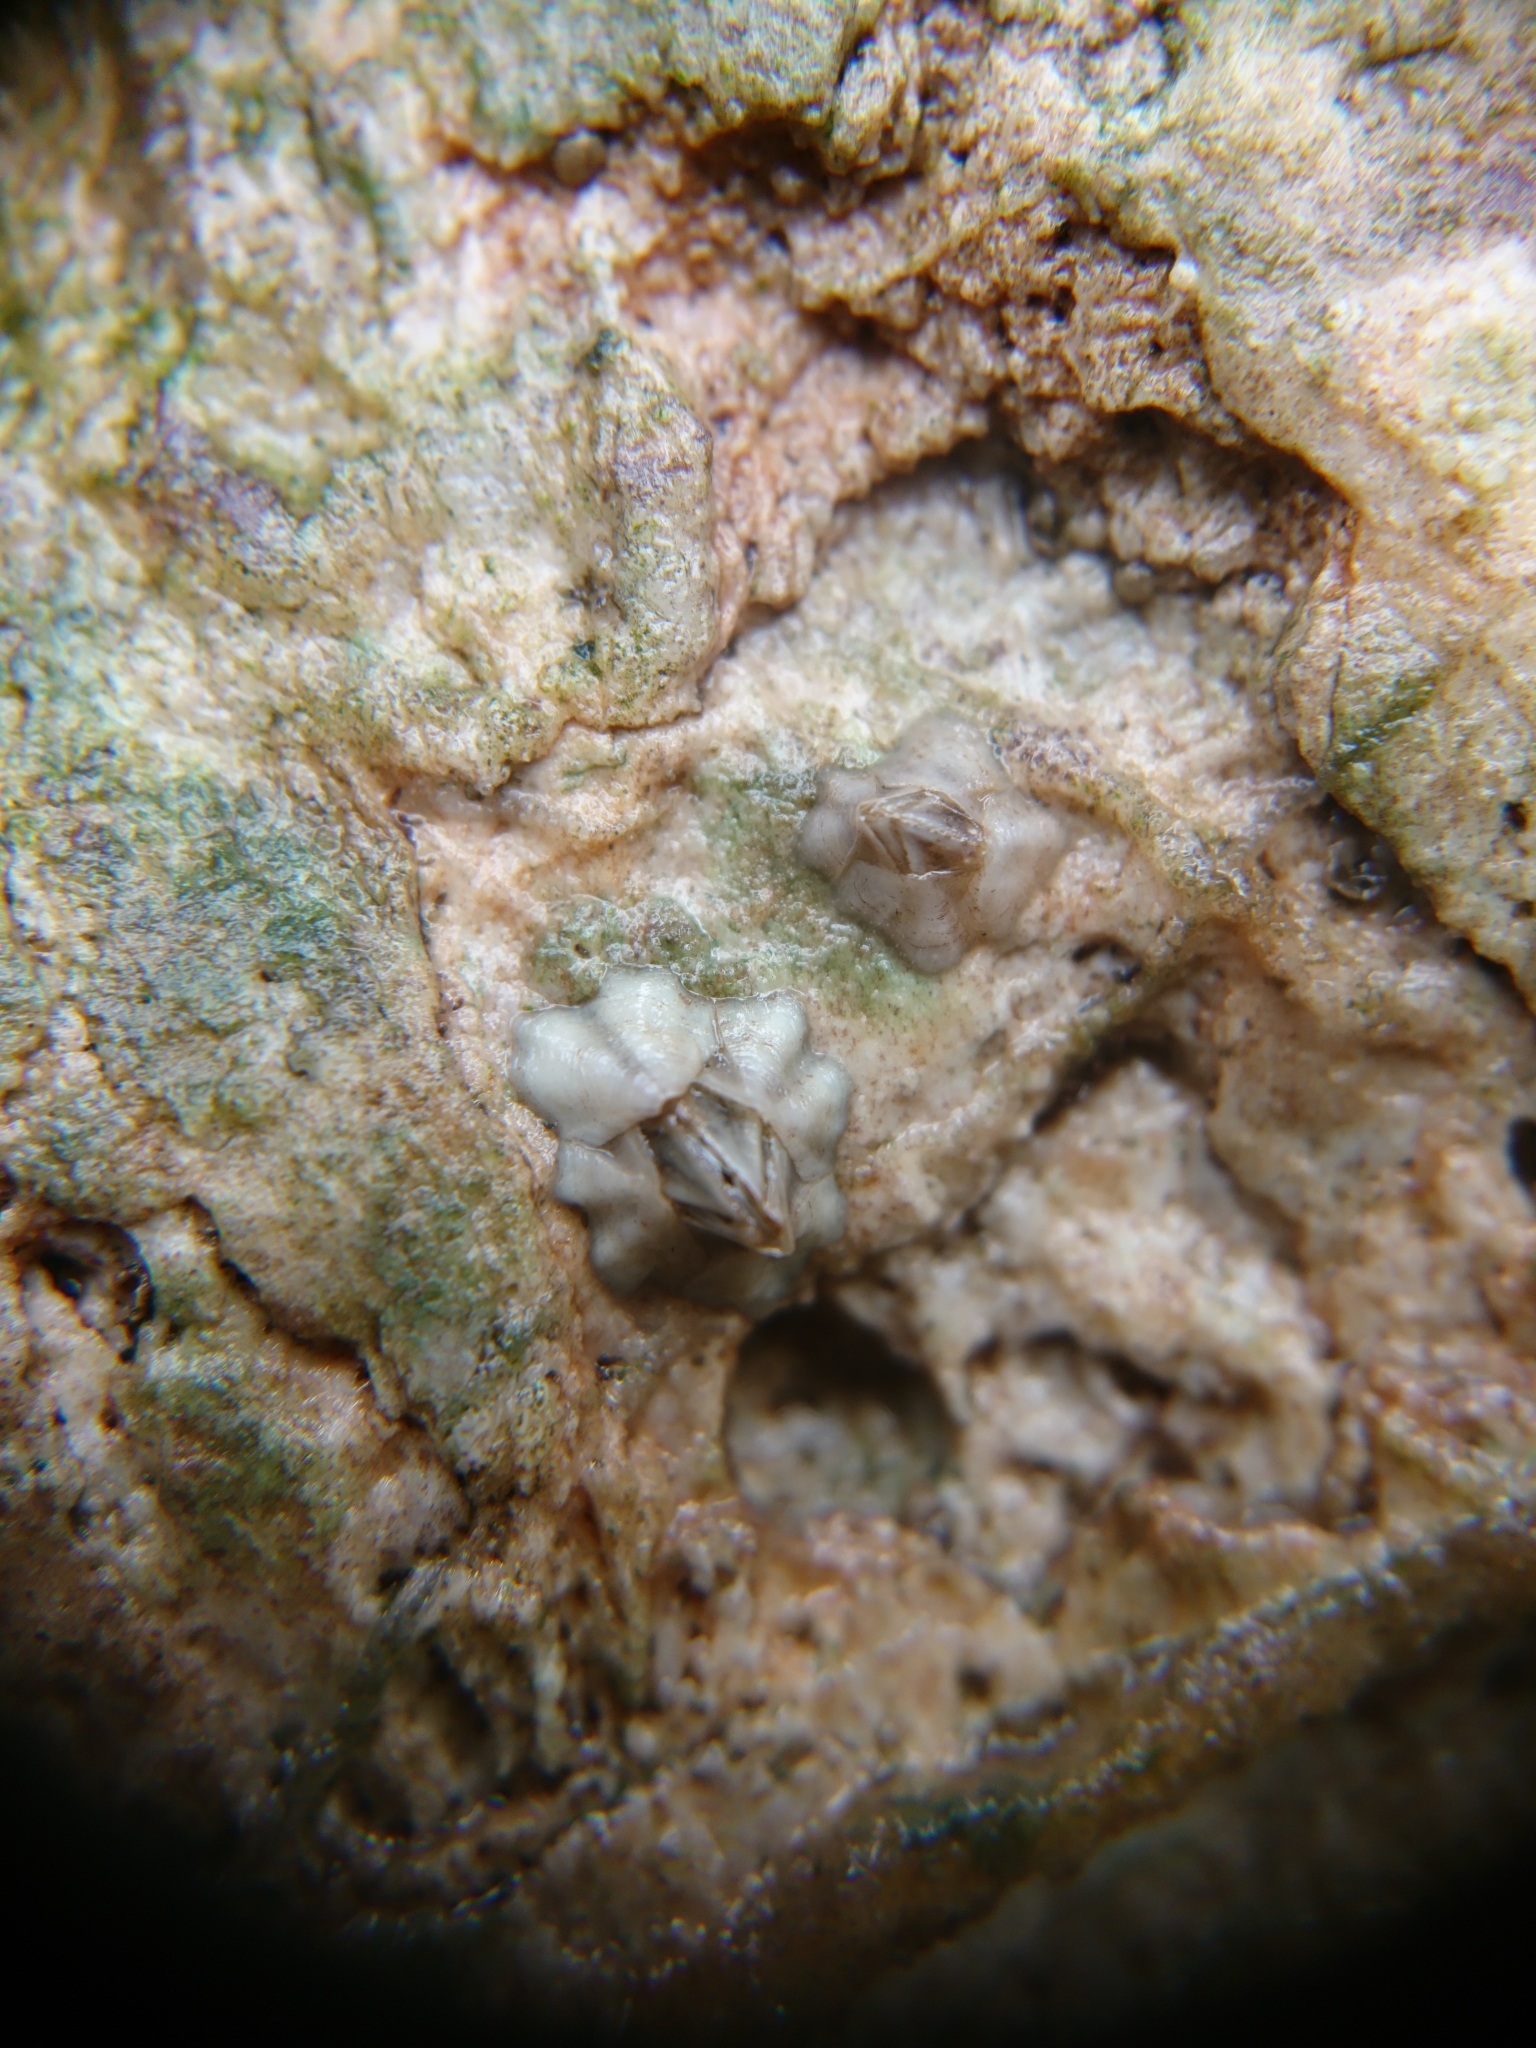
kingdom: Animalia
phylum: Arthropoda
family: Elminiidae
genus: Austrominius
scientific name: Austrominius modestus
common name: Australasian barnacle
